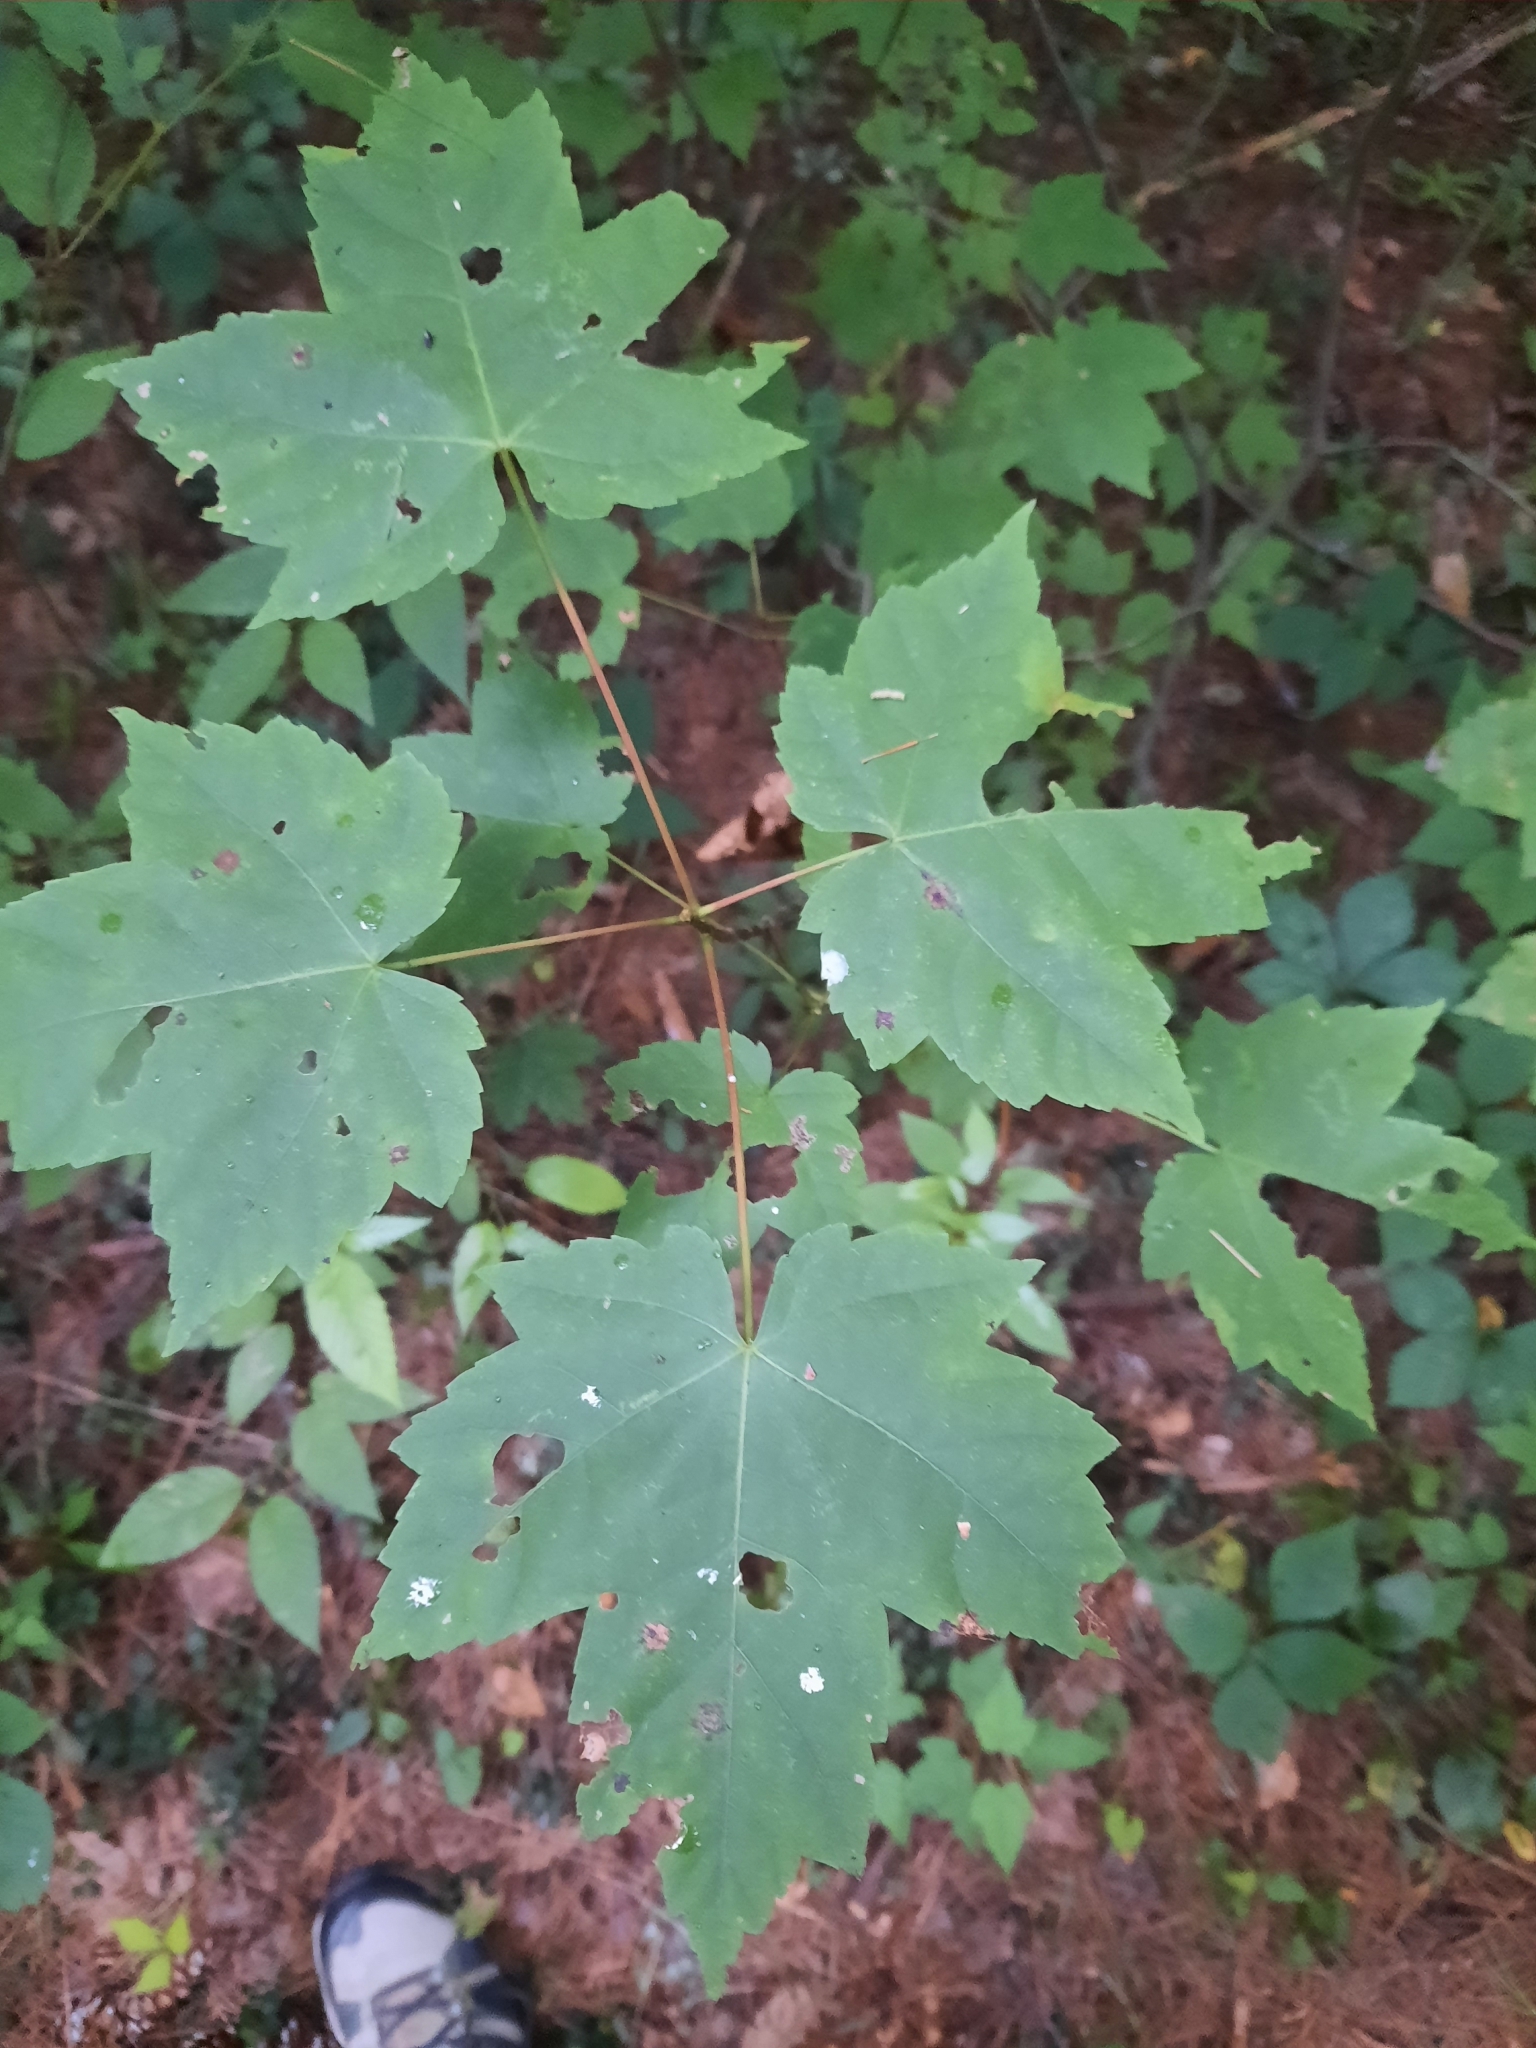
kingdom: Plantae
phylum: Tracheophyta
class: Magnoliopsida
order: Sapindales
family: Sapindaceae
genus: Acer
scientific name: Acer rubrum
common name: Red maple
